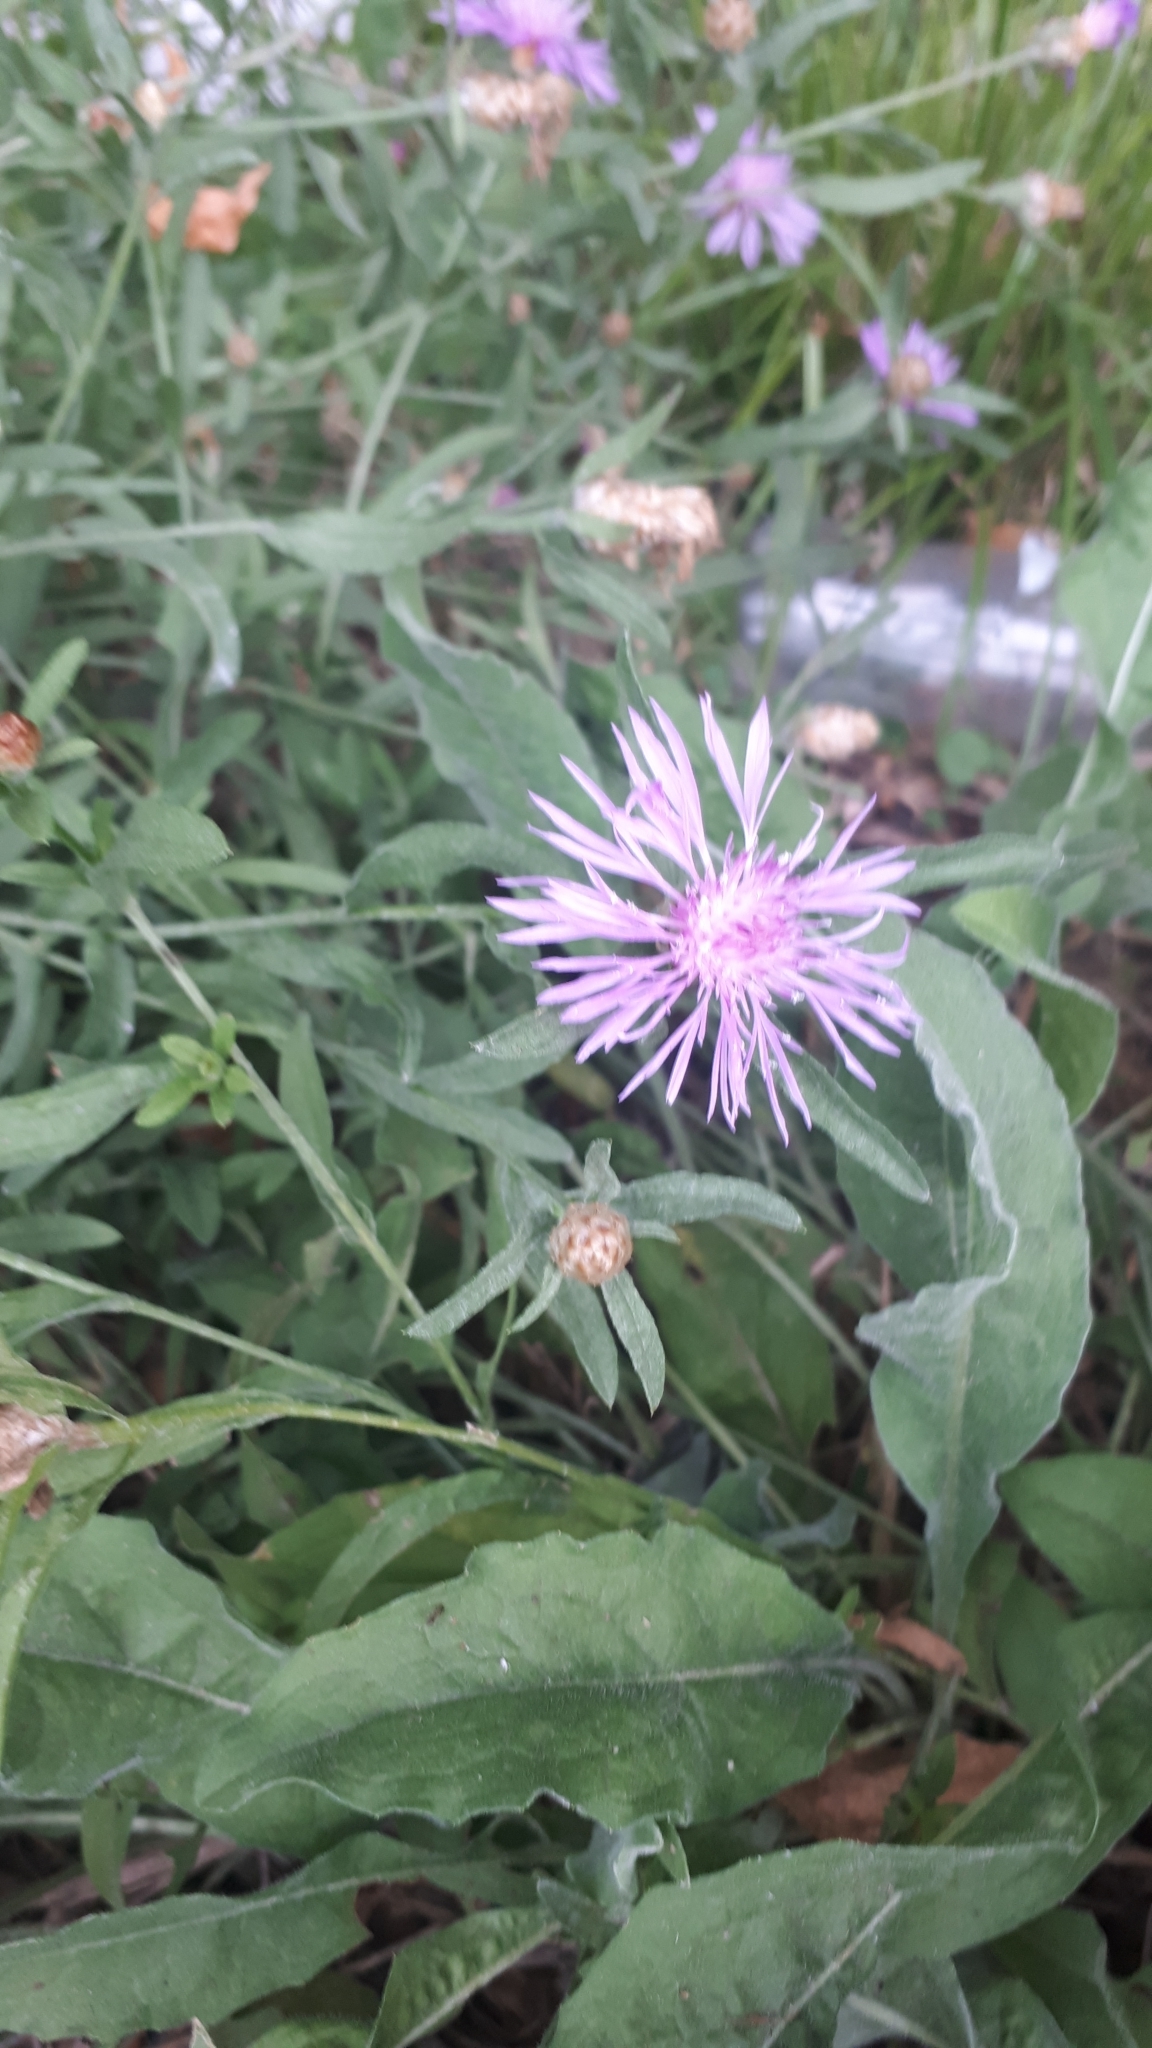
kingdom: Plantae
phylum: Tracheophyta
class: Magnoliopsida
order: Asterales
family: Asteraceae
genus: Centaurea
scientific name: Centaurea jacea
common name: Brown knapweed
